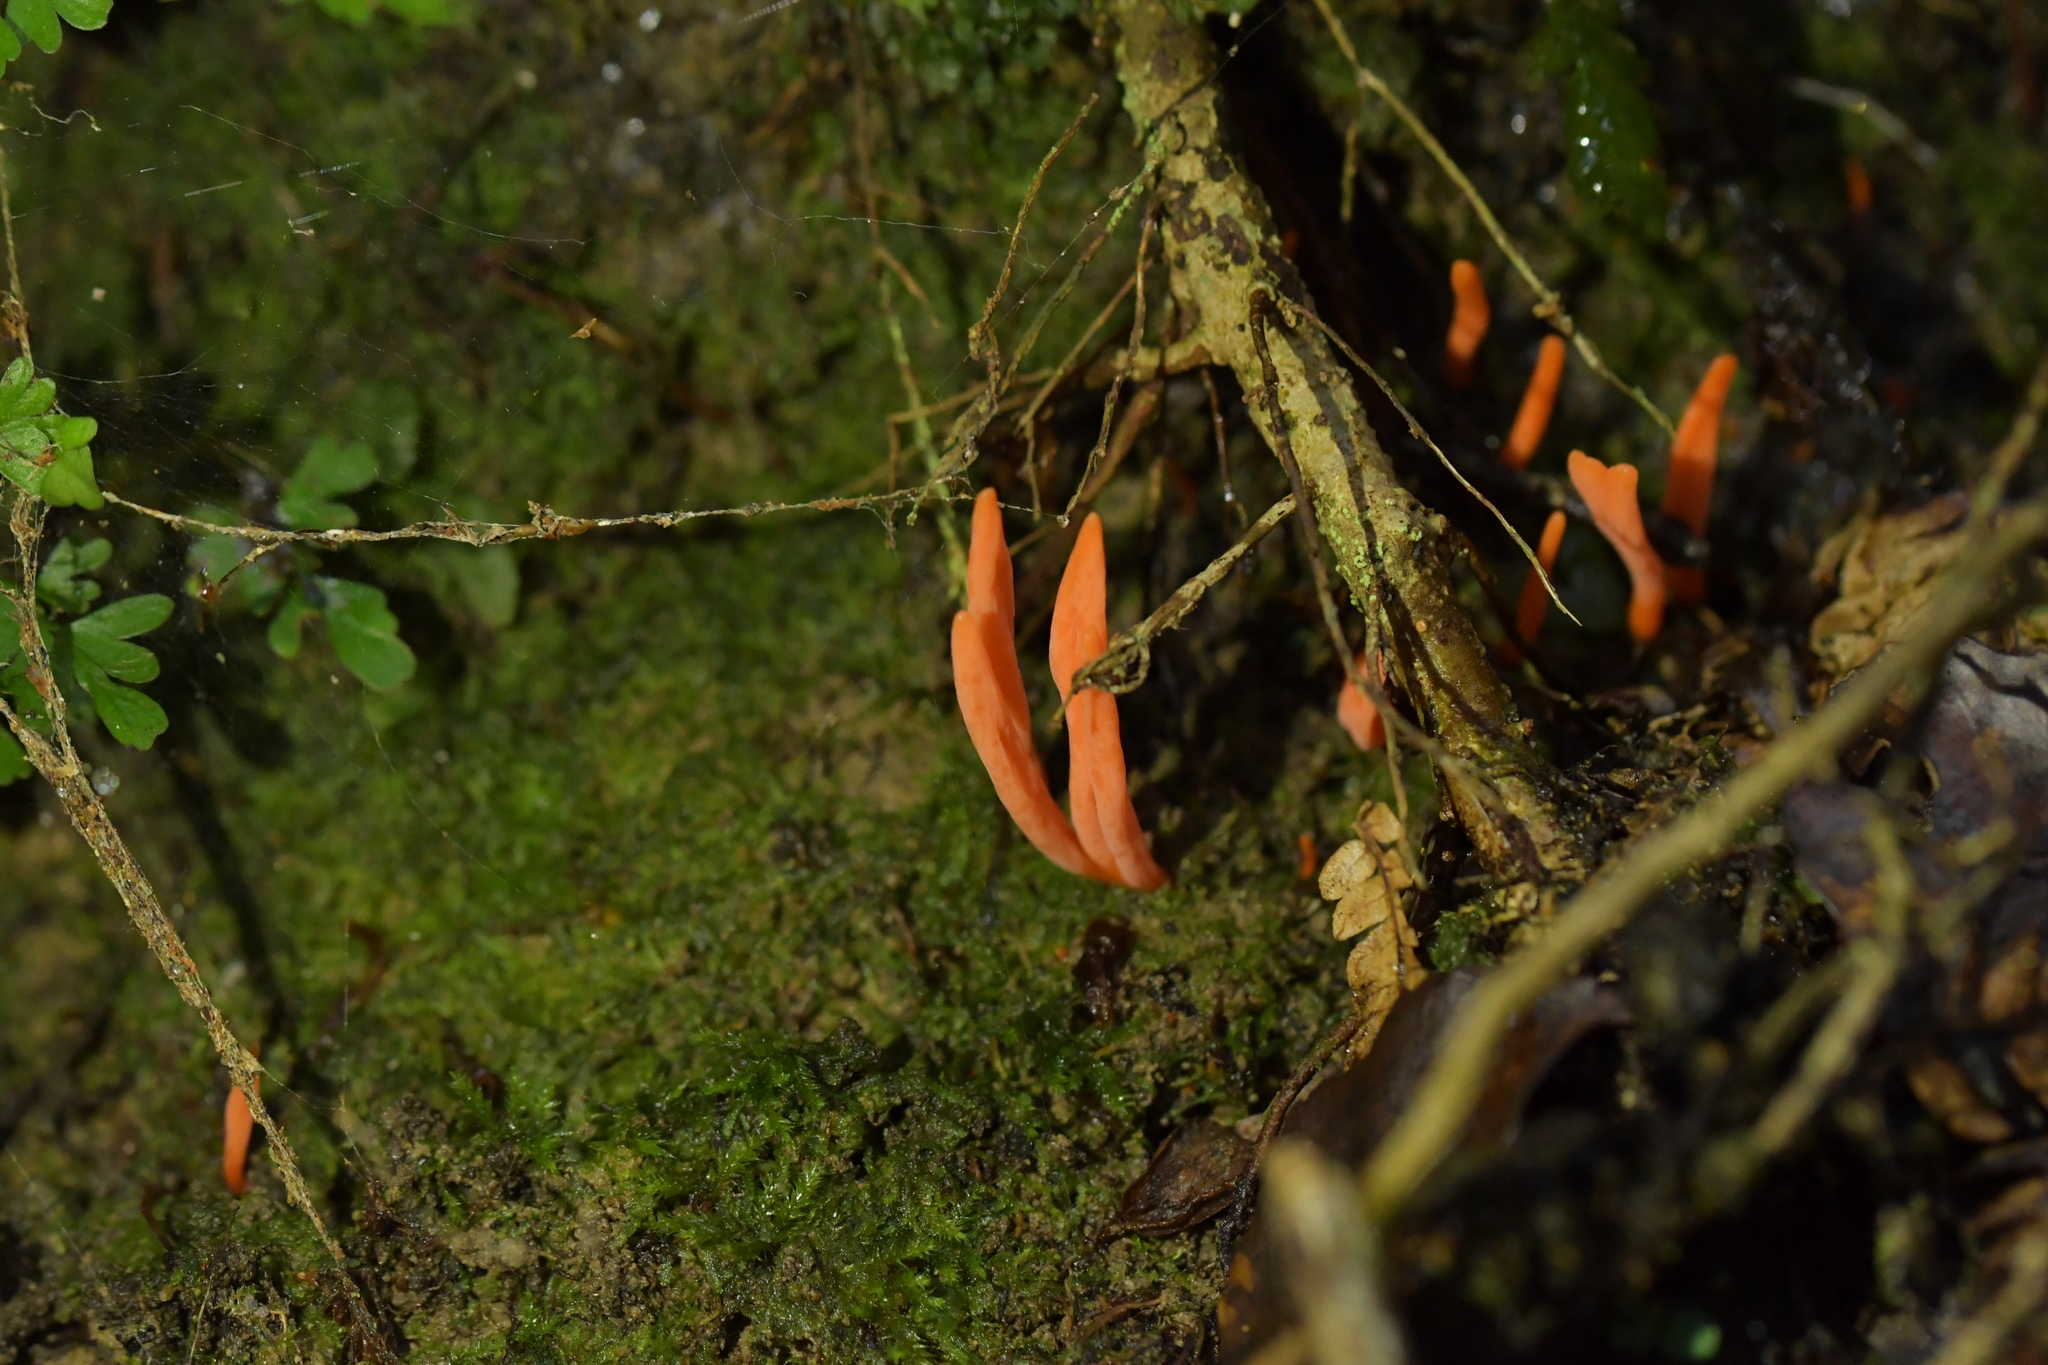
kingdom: Fungi
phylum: Basidiomycota
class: Agaricomycetes
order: Agaricales
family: Clavariaceae
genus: Clavulinopsis
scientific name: Clavulinopsis sulcata
